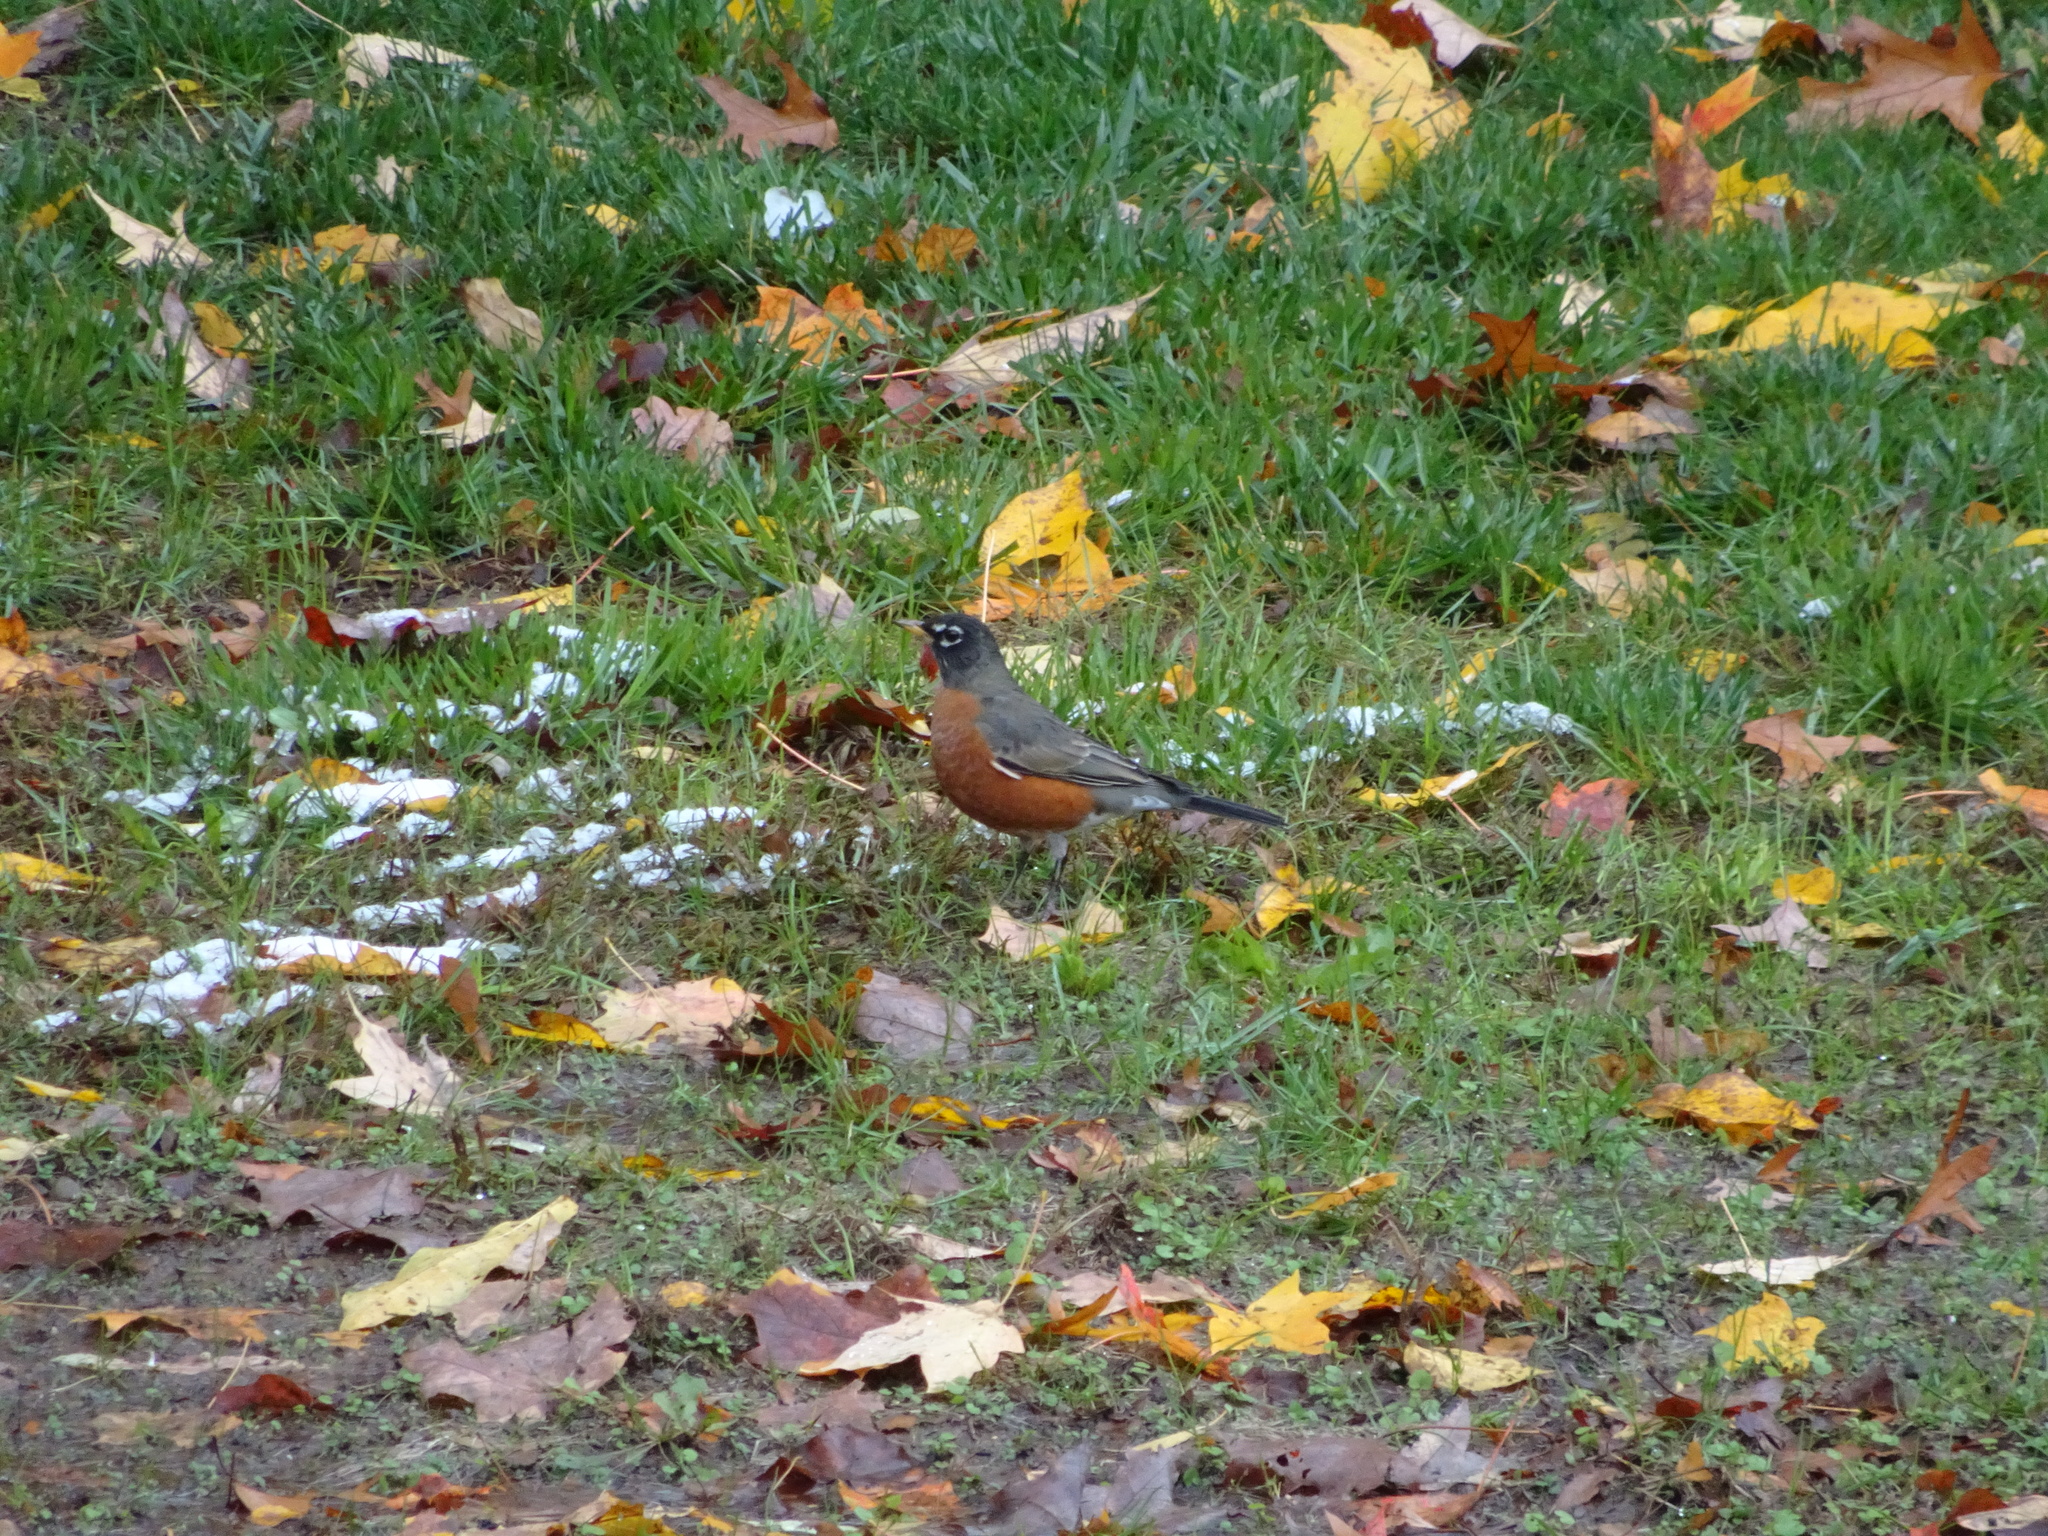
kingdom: Animalia
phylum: Chordata
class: Aves
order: Passeriformes
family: Turdidae
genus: Turdus
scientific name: Turdus migratorius
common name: American robin
